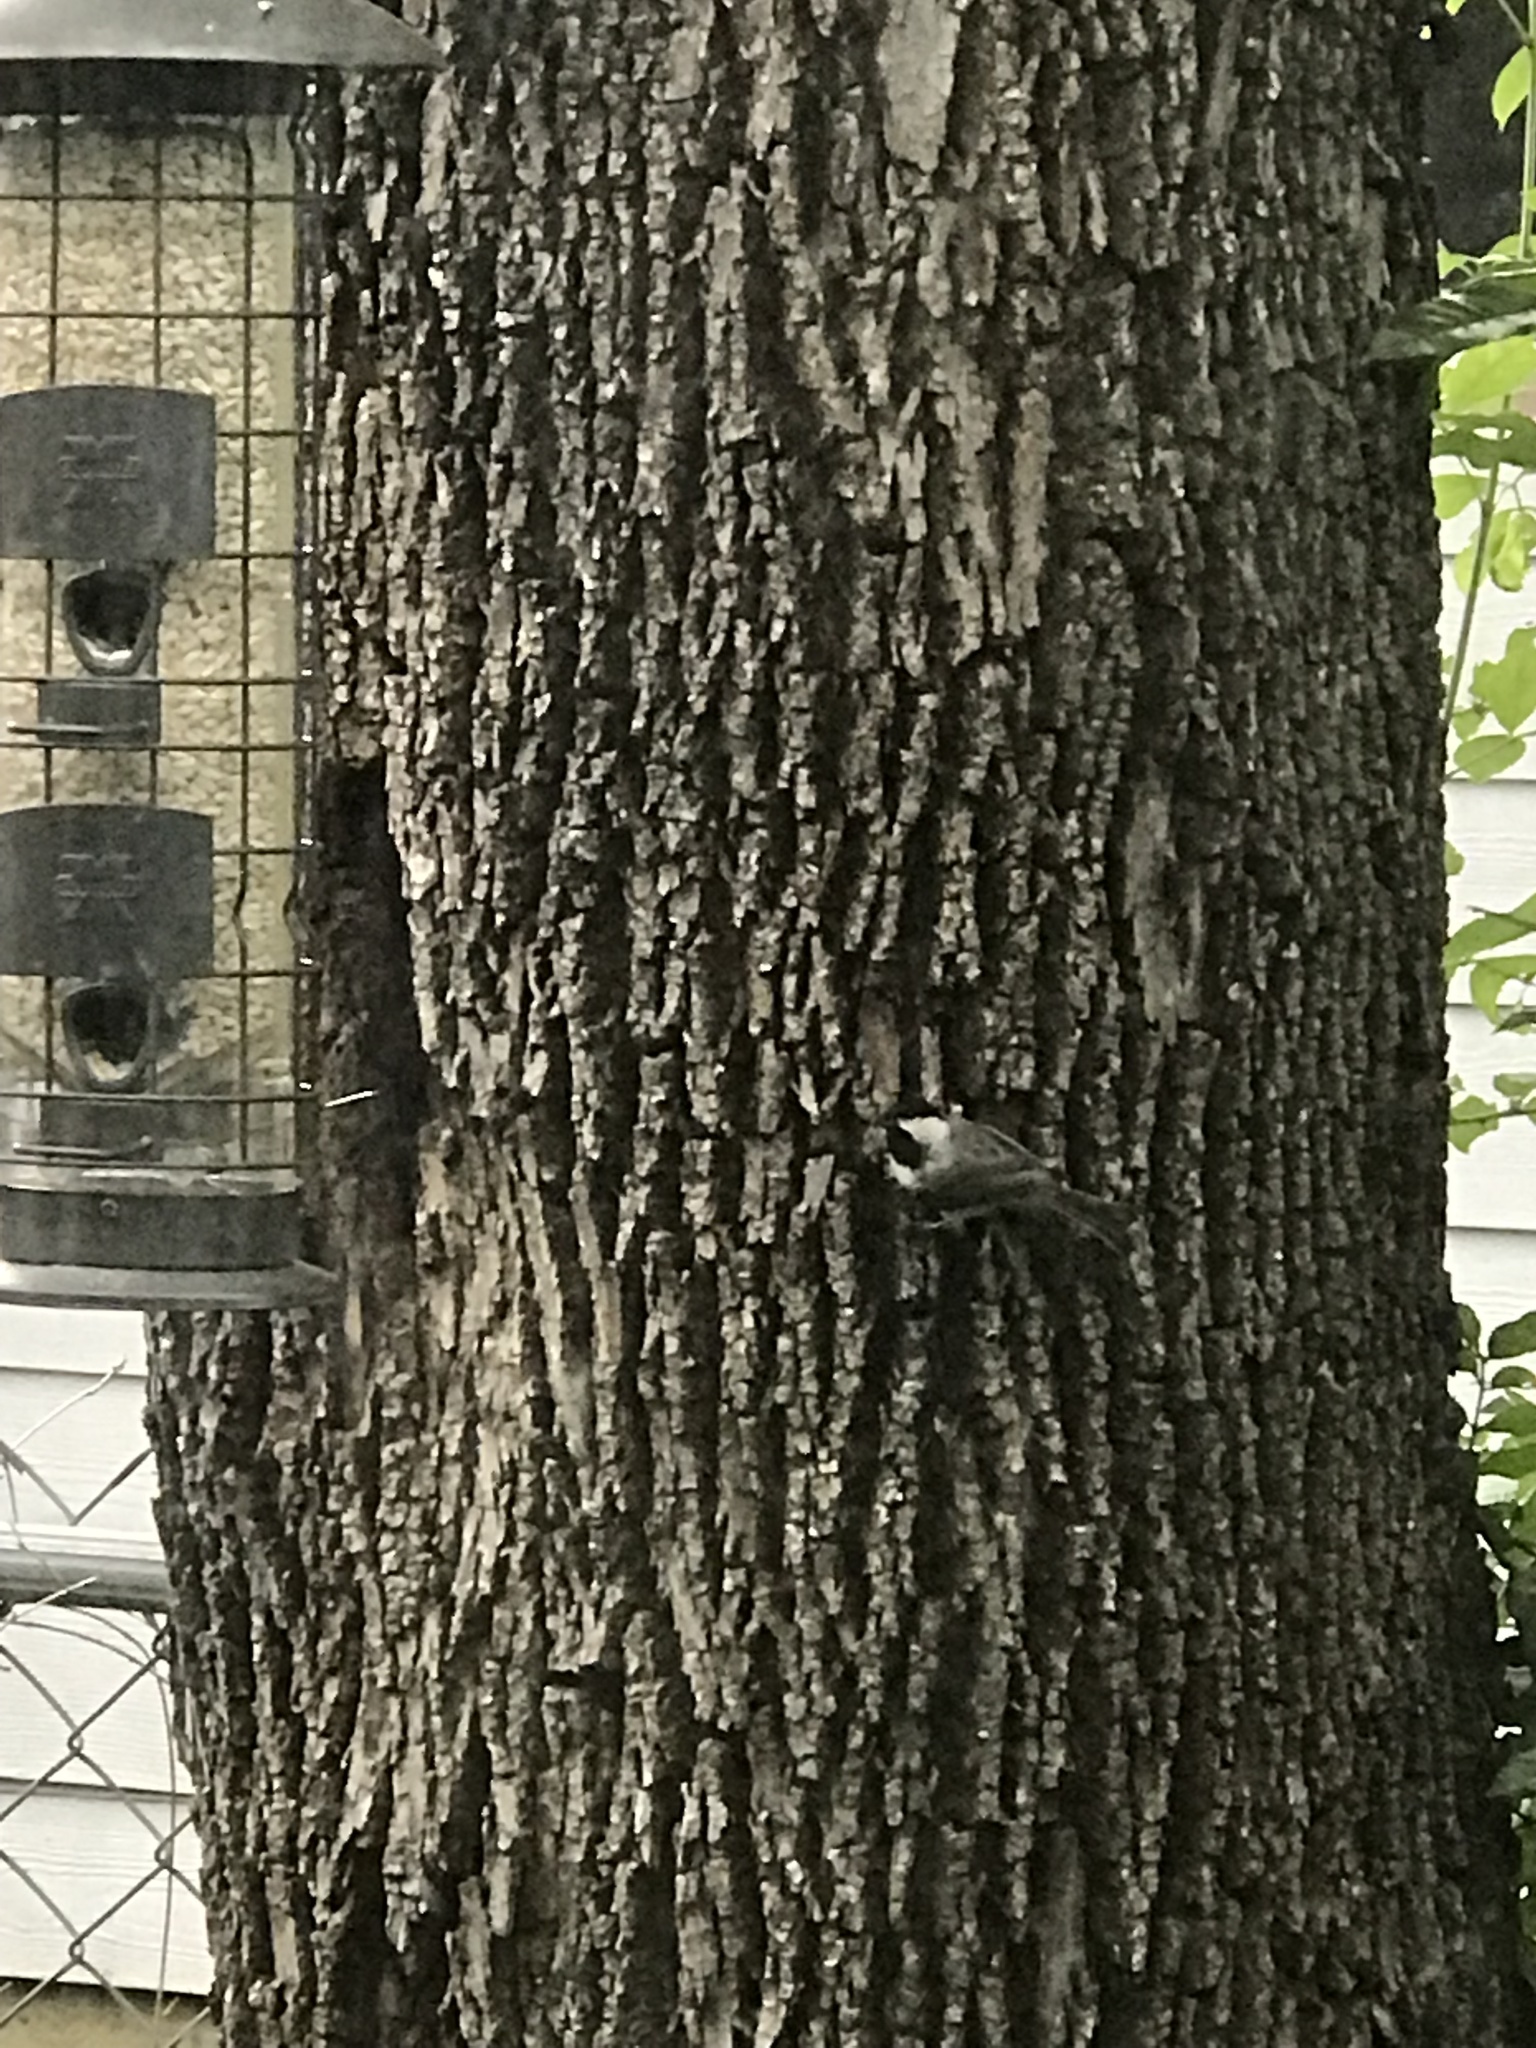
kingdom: Animalia
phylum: Chordata
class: Aves
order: Passeriformes
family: Paridae
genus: Poecile
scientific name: Poecile carolinensis
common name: Carolina chickadee
